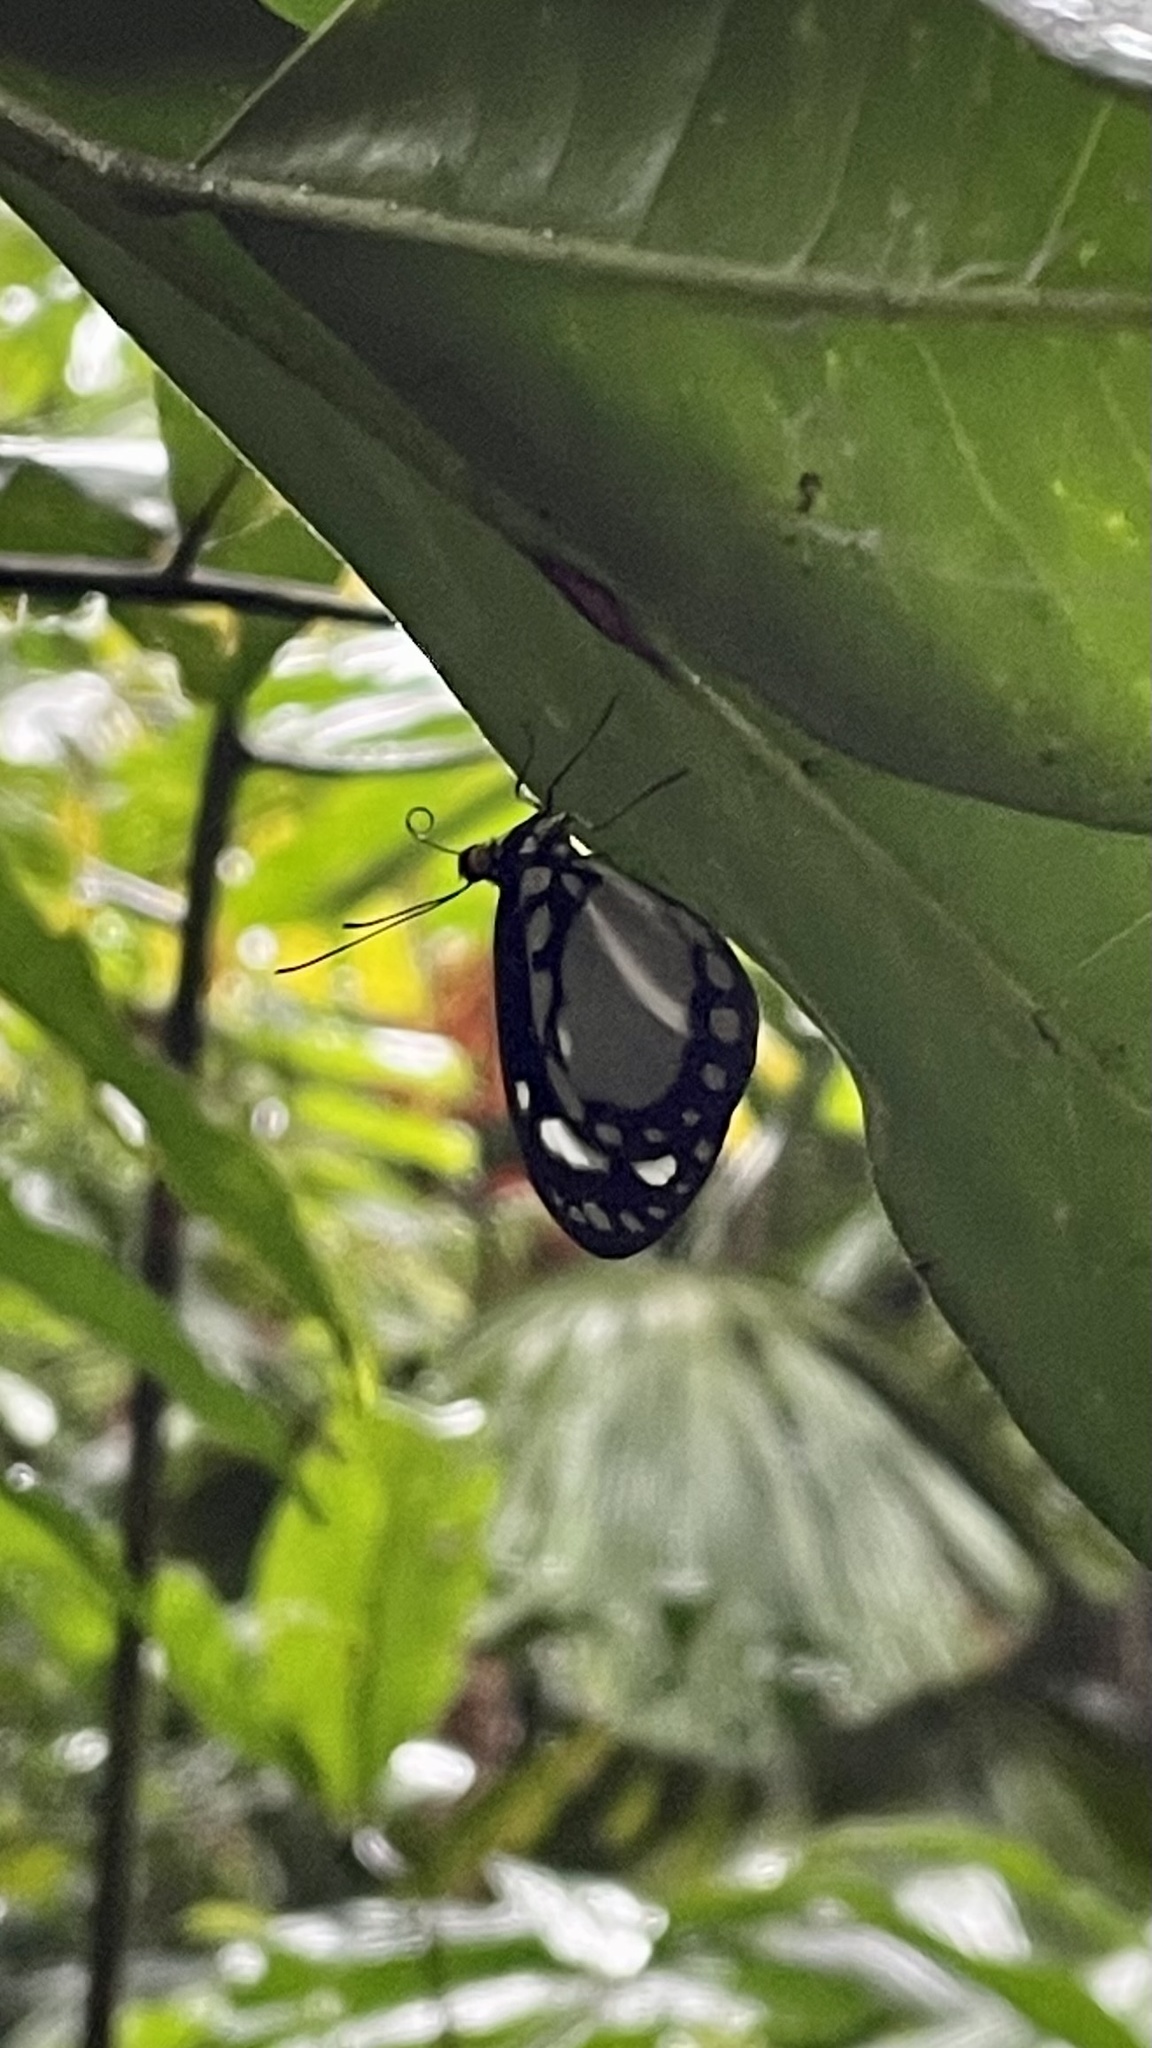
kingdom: Animalia
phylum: Arthropoda
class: Insecta
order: Lepidoptera
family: Nymphalidae
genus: Tellervo
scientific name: Tellervo zoilus
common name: Hamadryad
